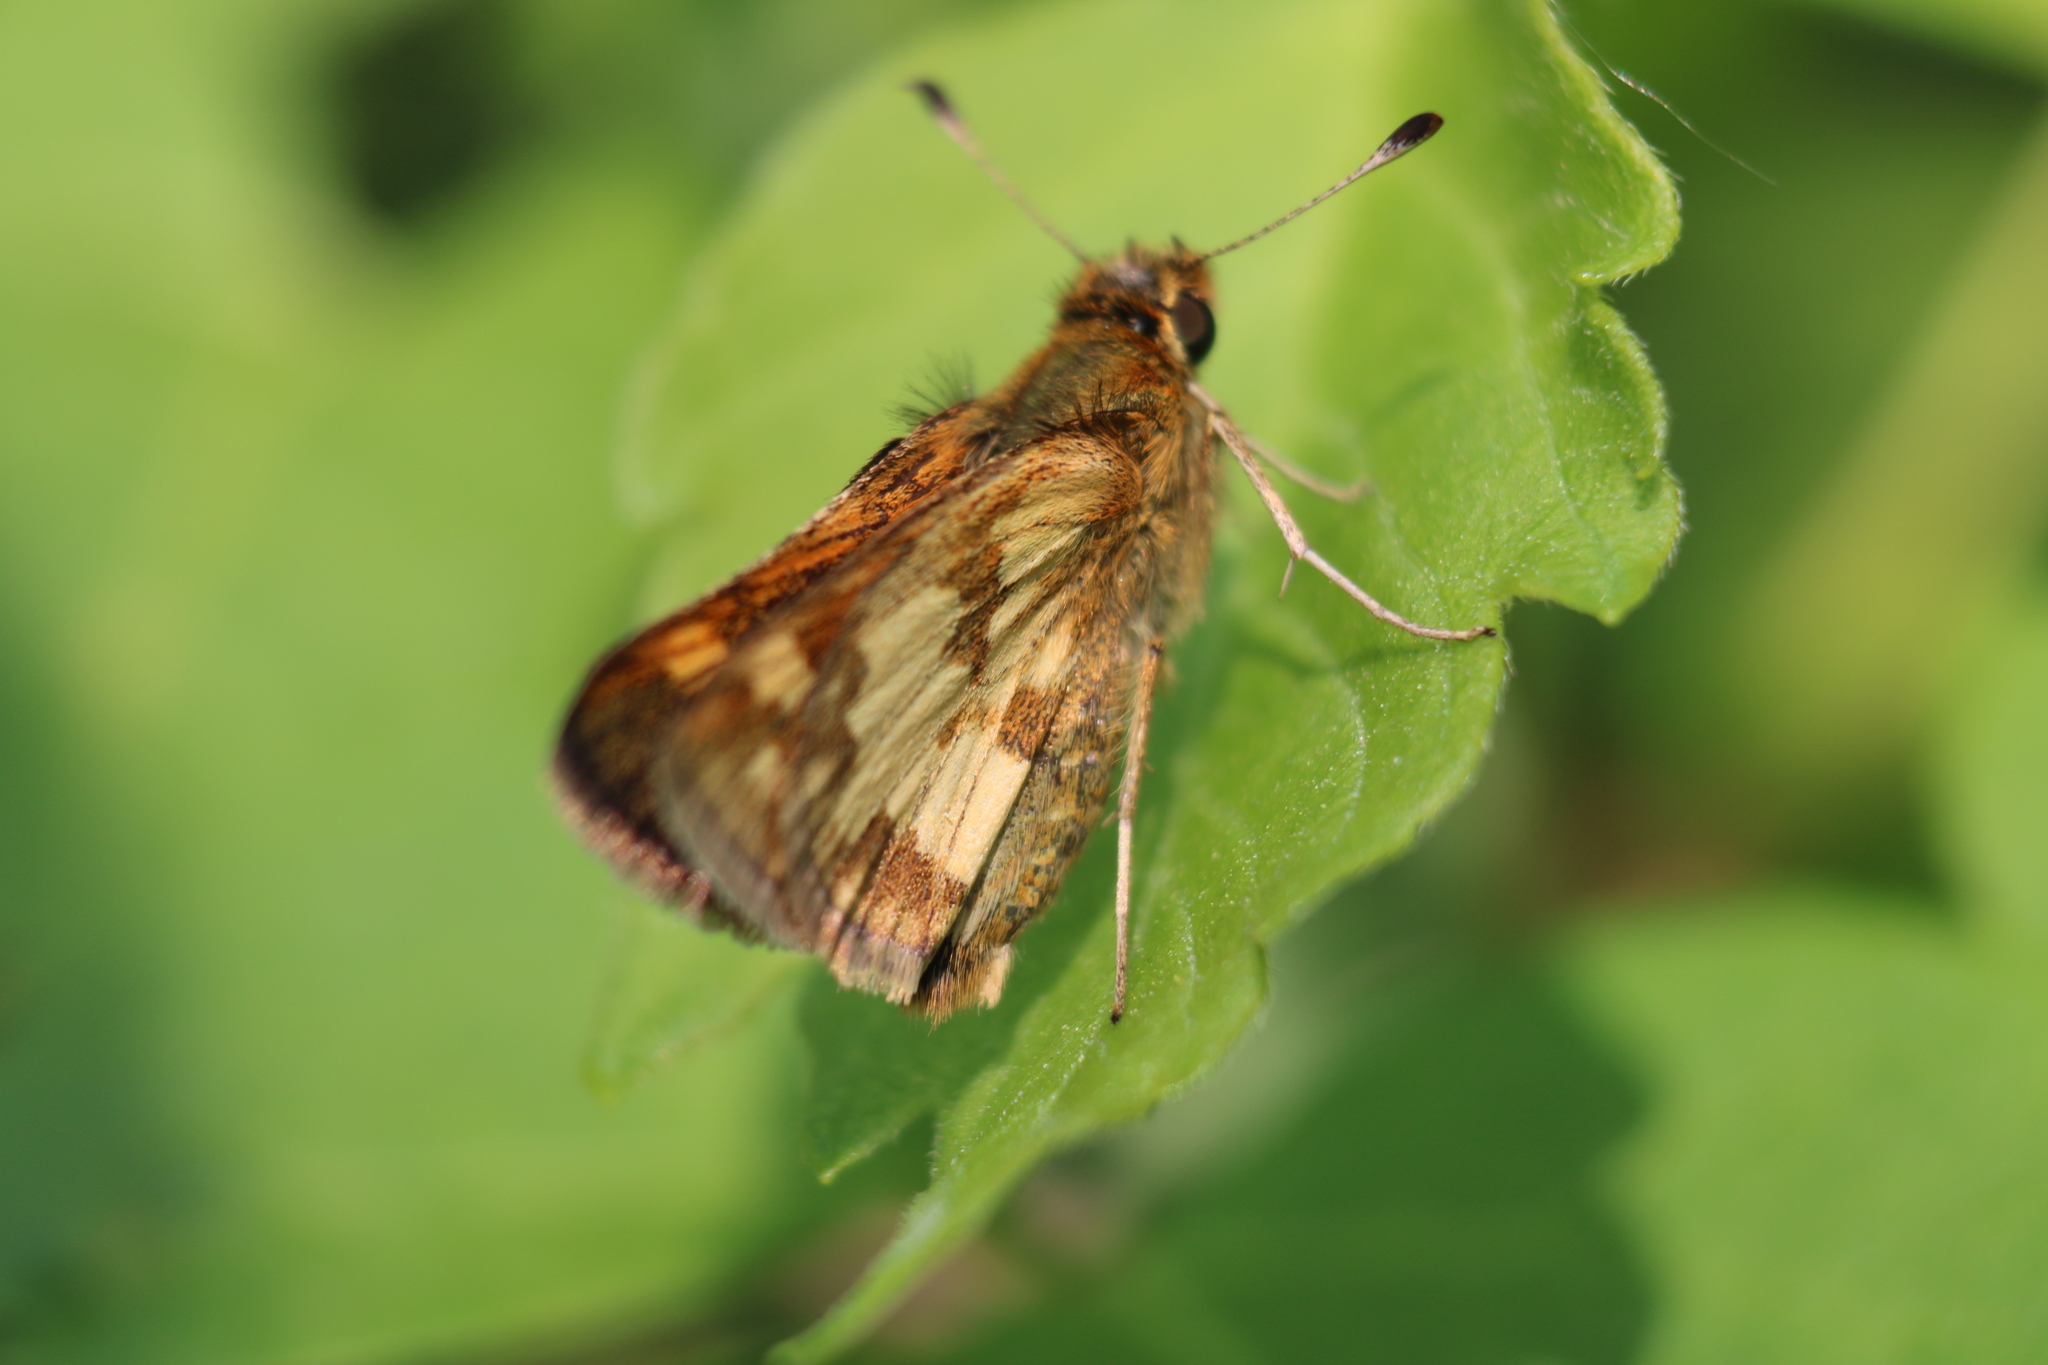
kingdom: Animalia
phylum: Arthropoda
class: Insecta
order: Lepidoptera
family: Hesperiidae
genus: Polites
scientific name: Polites coras
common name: Peck's skipper
